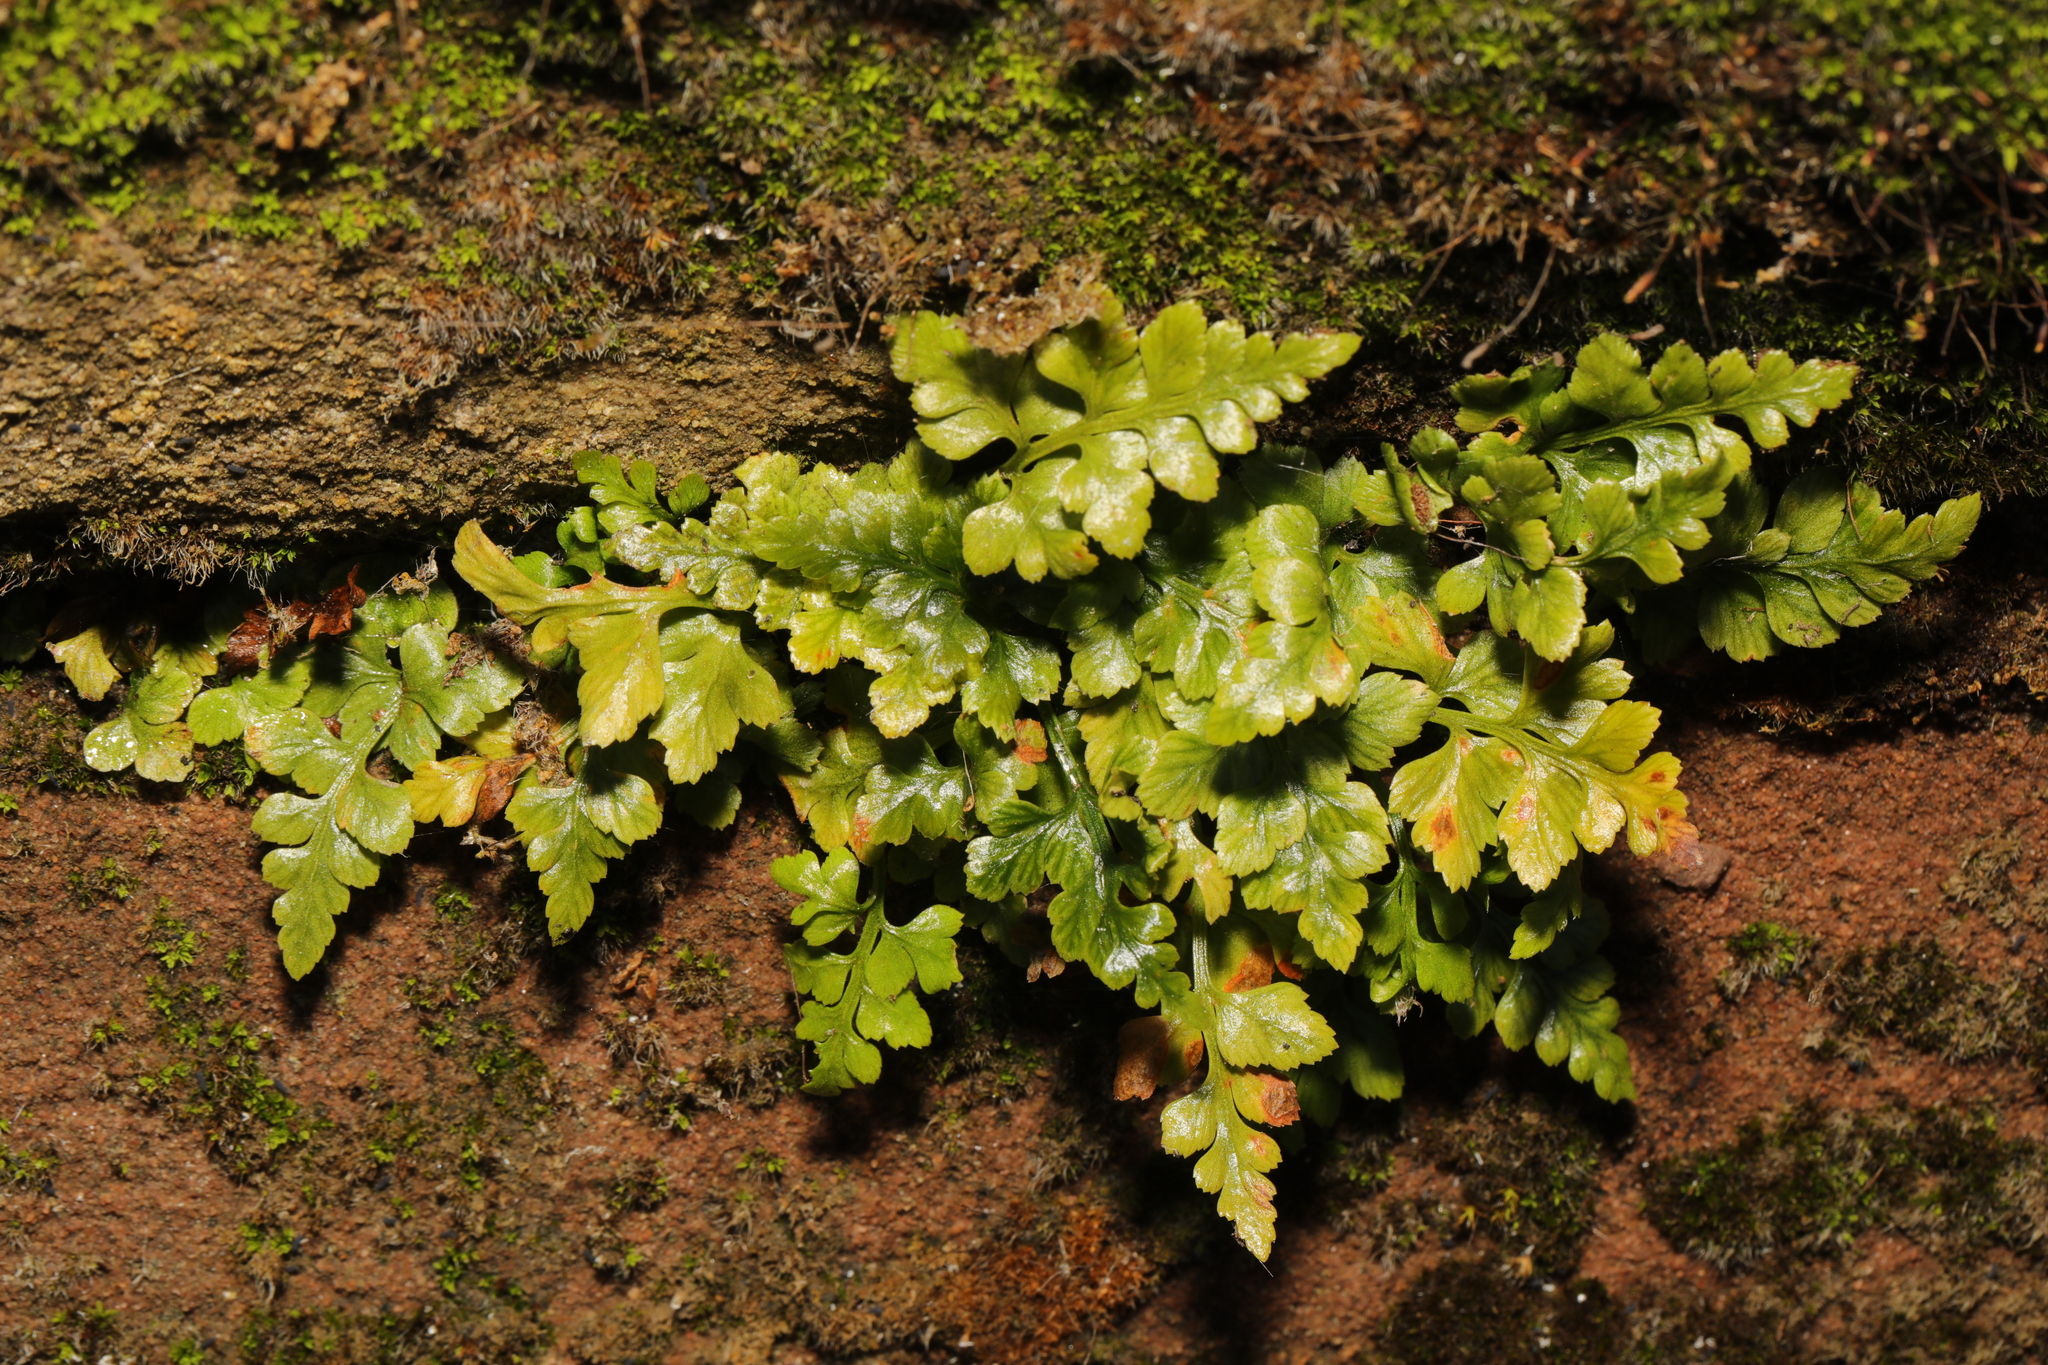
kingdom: Plantae
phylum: Tracheophyta
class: Polypodiopsida
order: Polypodiales
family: Aspleniaceae
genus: Asplenium
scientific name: Asplenium adiantum-nigrum
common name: Black spleenwort
